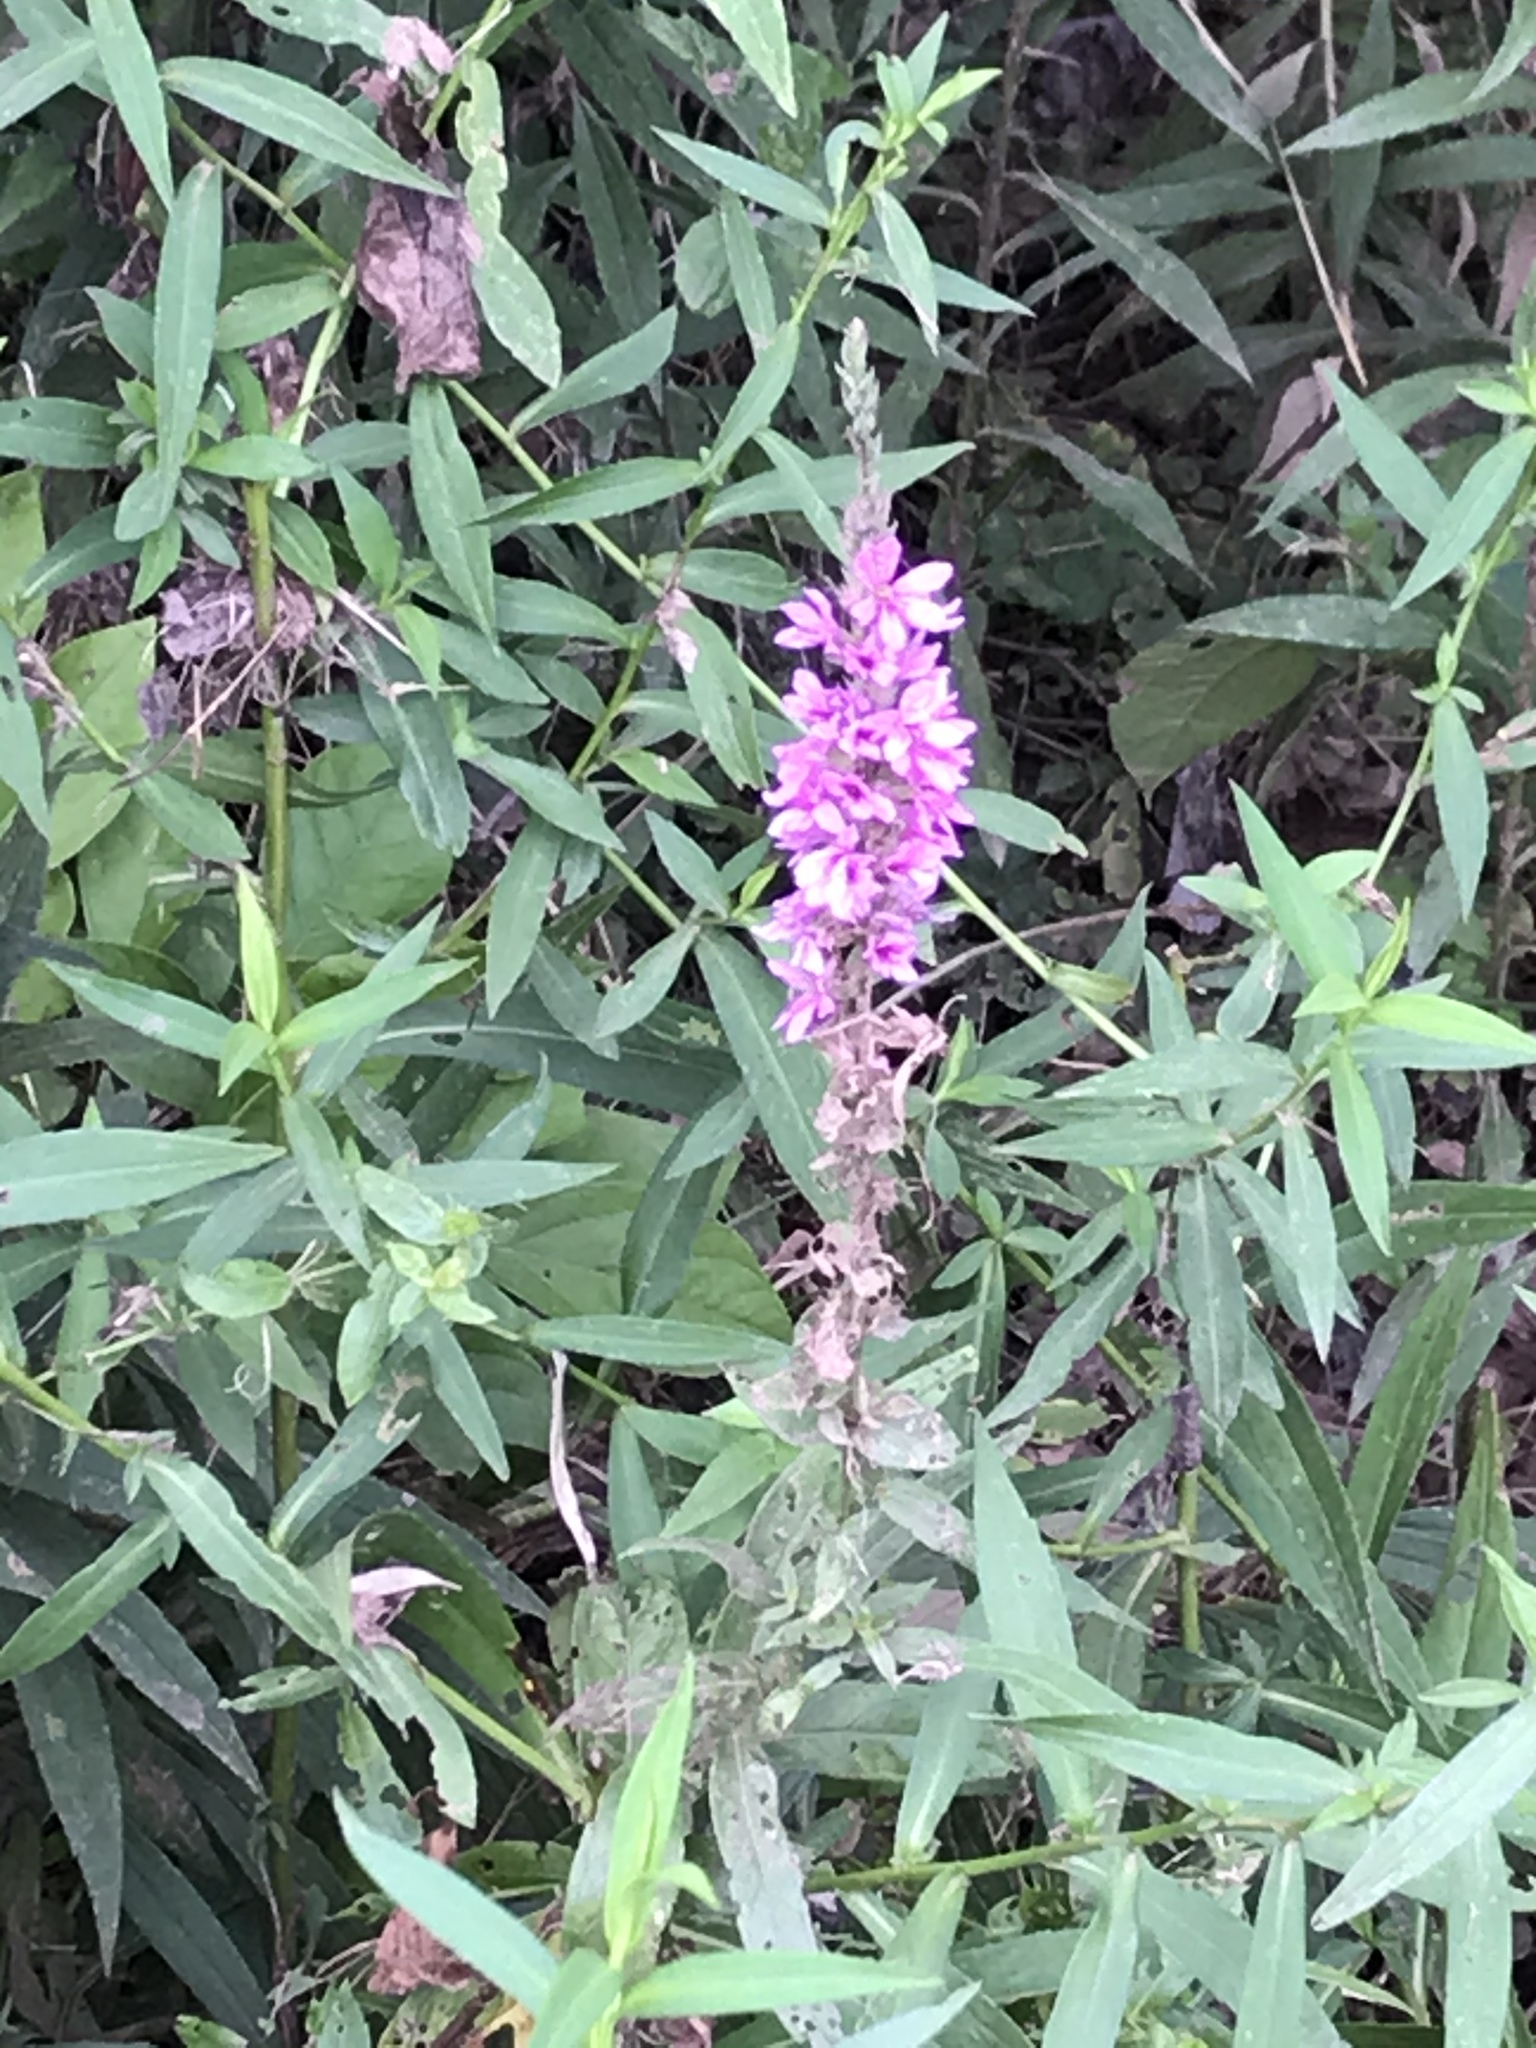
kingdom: Plantae
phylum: Tracheophyta
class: Magnoliopsida
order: Myrtales
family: Lythraceae
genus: Lythrum
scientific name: Lythrum salicaria
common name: Purple loosestrife
